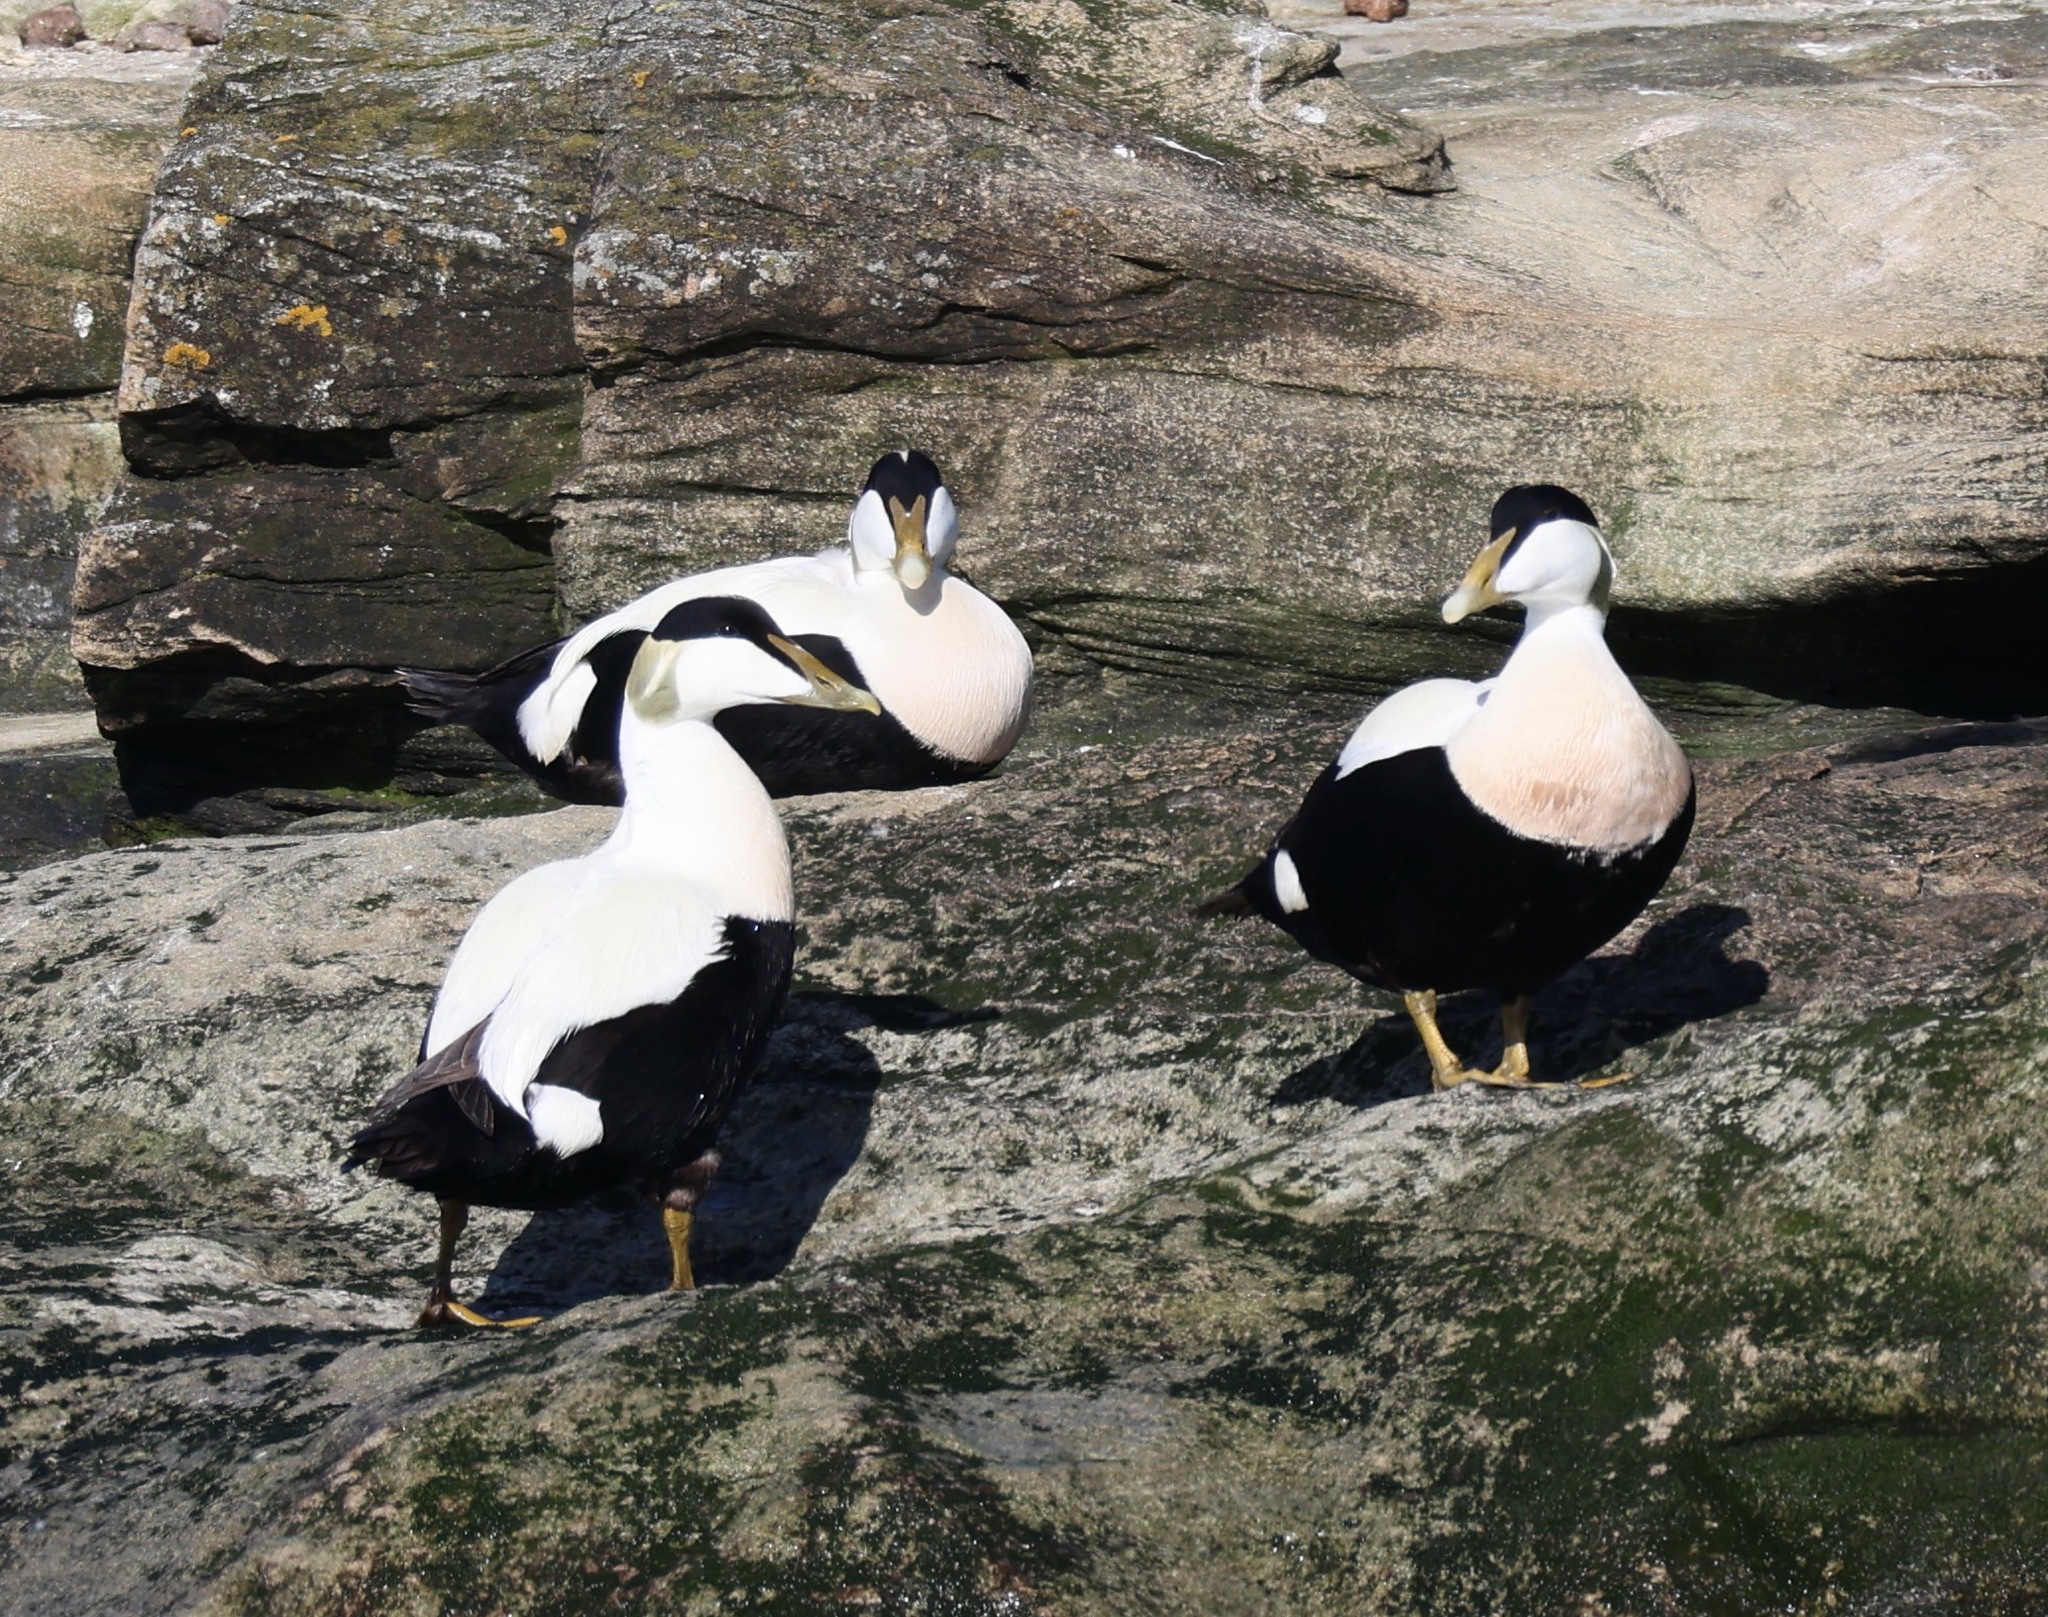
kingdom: Animalia
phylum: Chordata
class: Aves
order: Anseriformes
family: Anatidae
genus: Somateria
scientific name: Somateria mollissima
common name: Common eider
